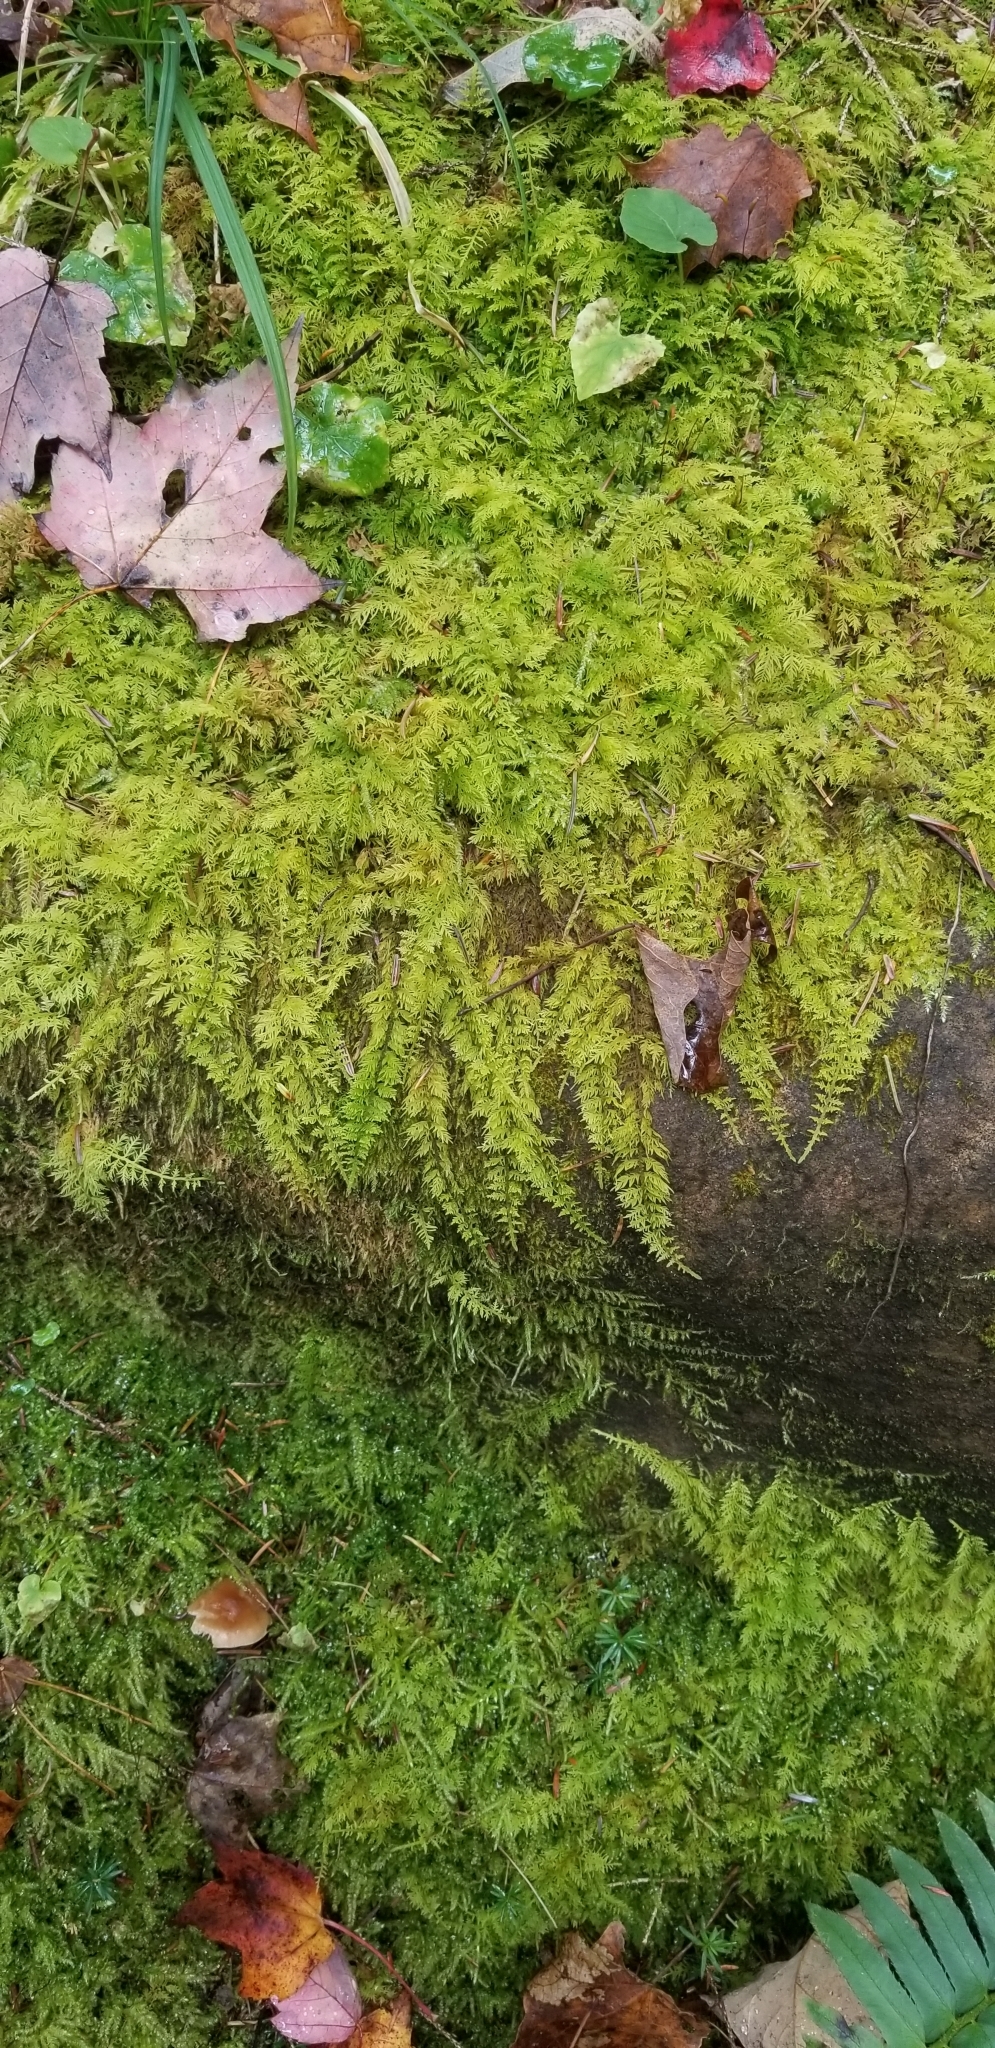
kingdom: Plantae
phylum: Bryophyta
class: Bryopsida
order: Hypnales
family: Thuidiaceae
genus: Thuidium
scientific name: Thuidium delicatulum
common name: Delicate fern moss
